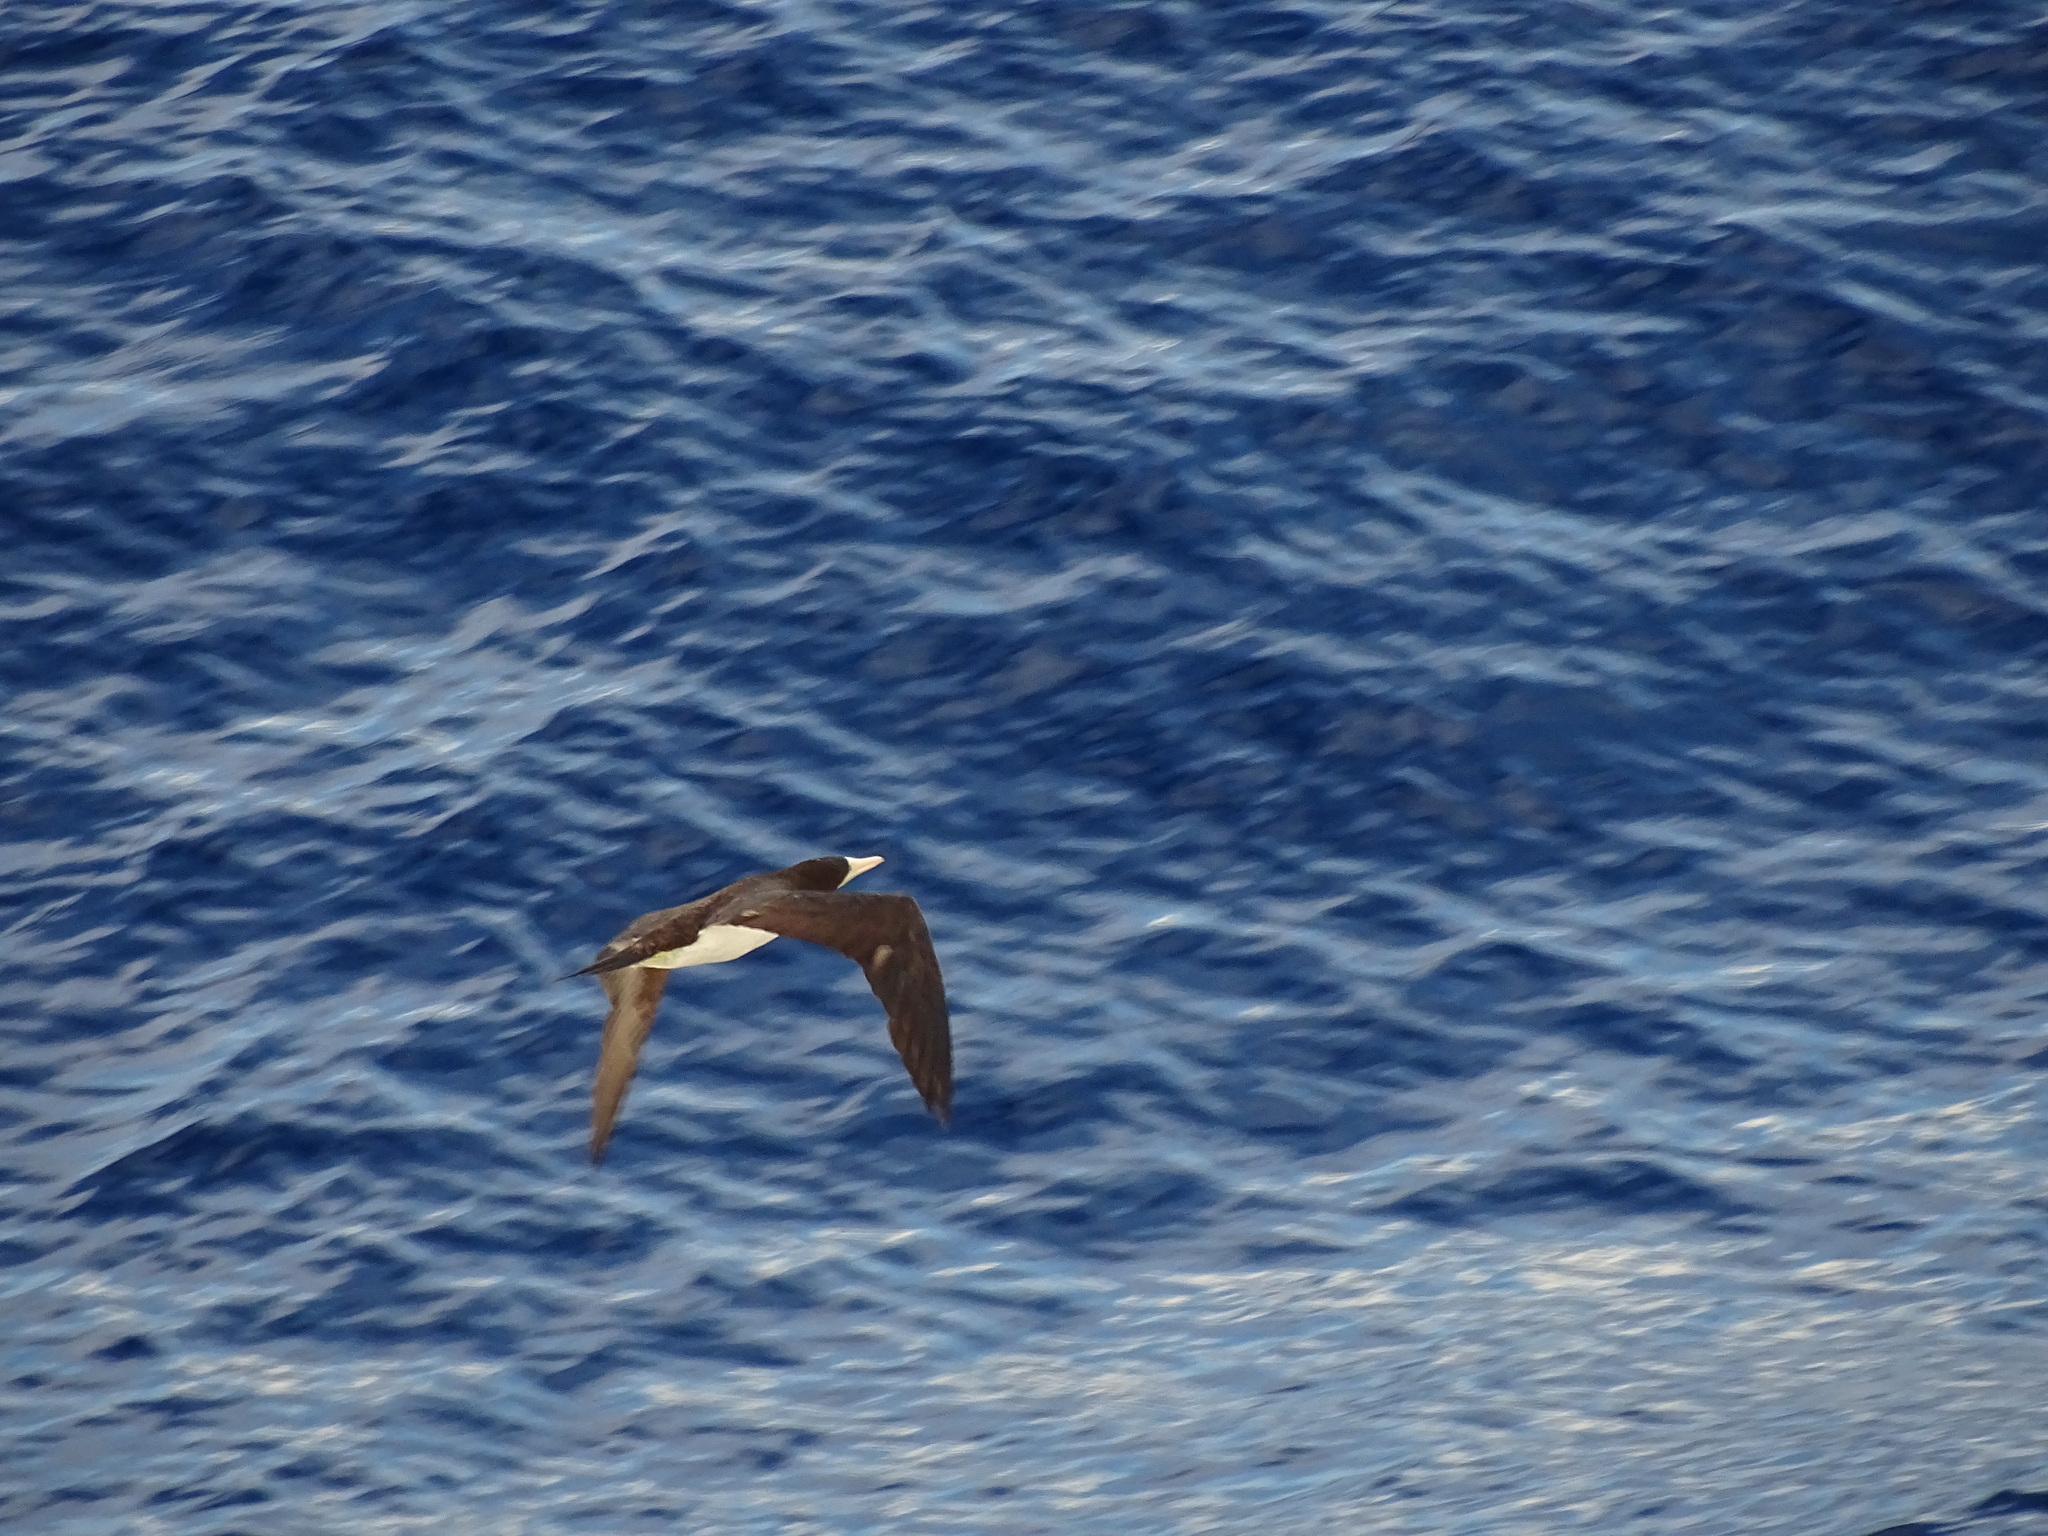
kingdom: Animalia
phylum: Chordata
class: Aves
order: Suliformes
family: Sulidae
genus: Sula
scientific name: Sula leucogaster
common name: Brown booby
